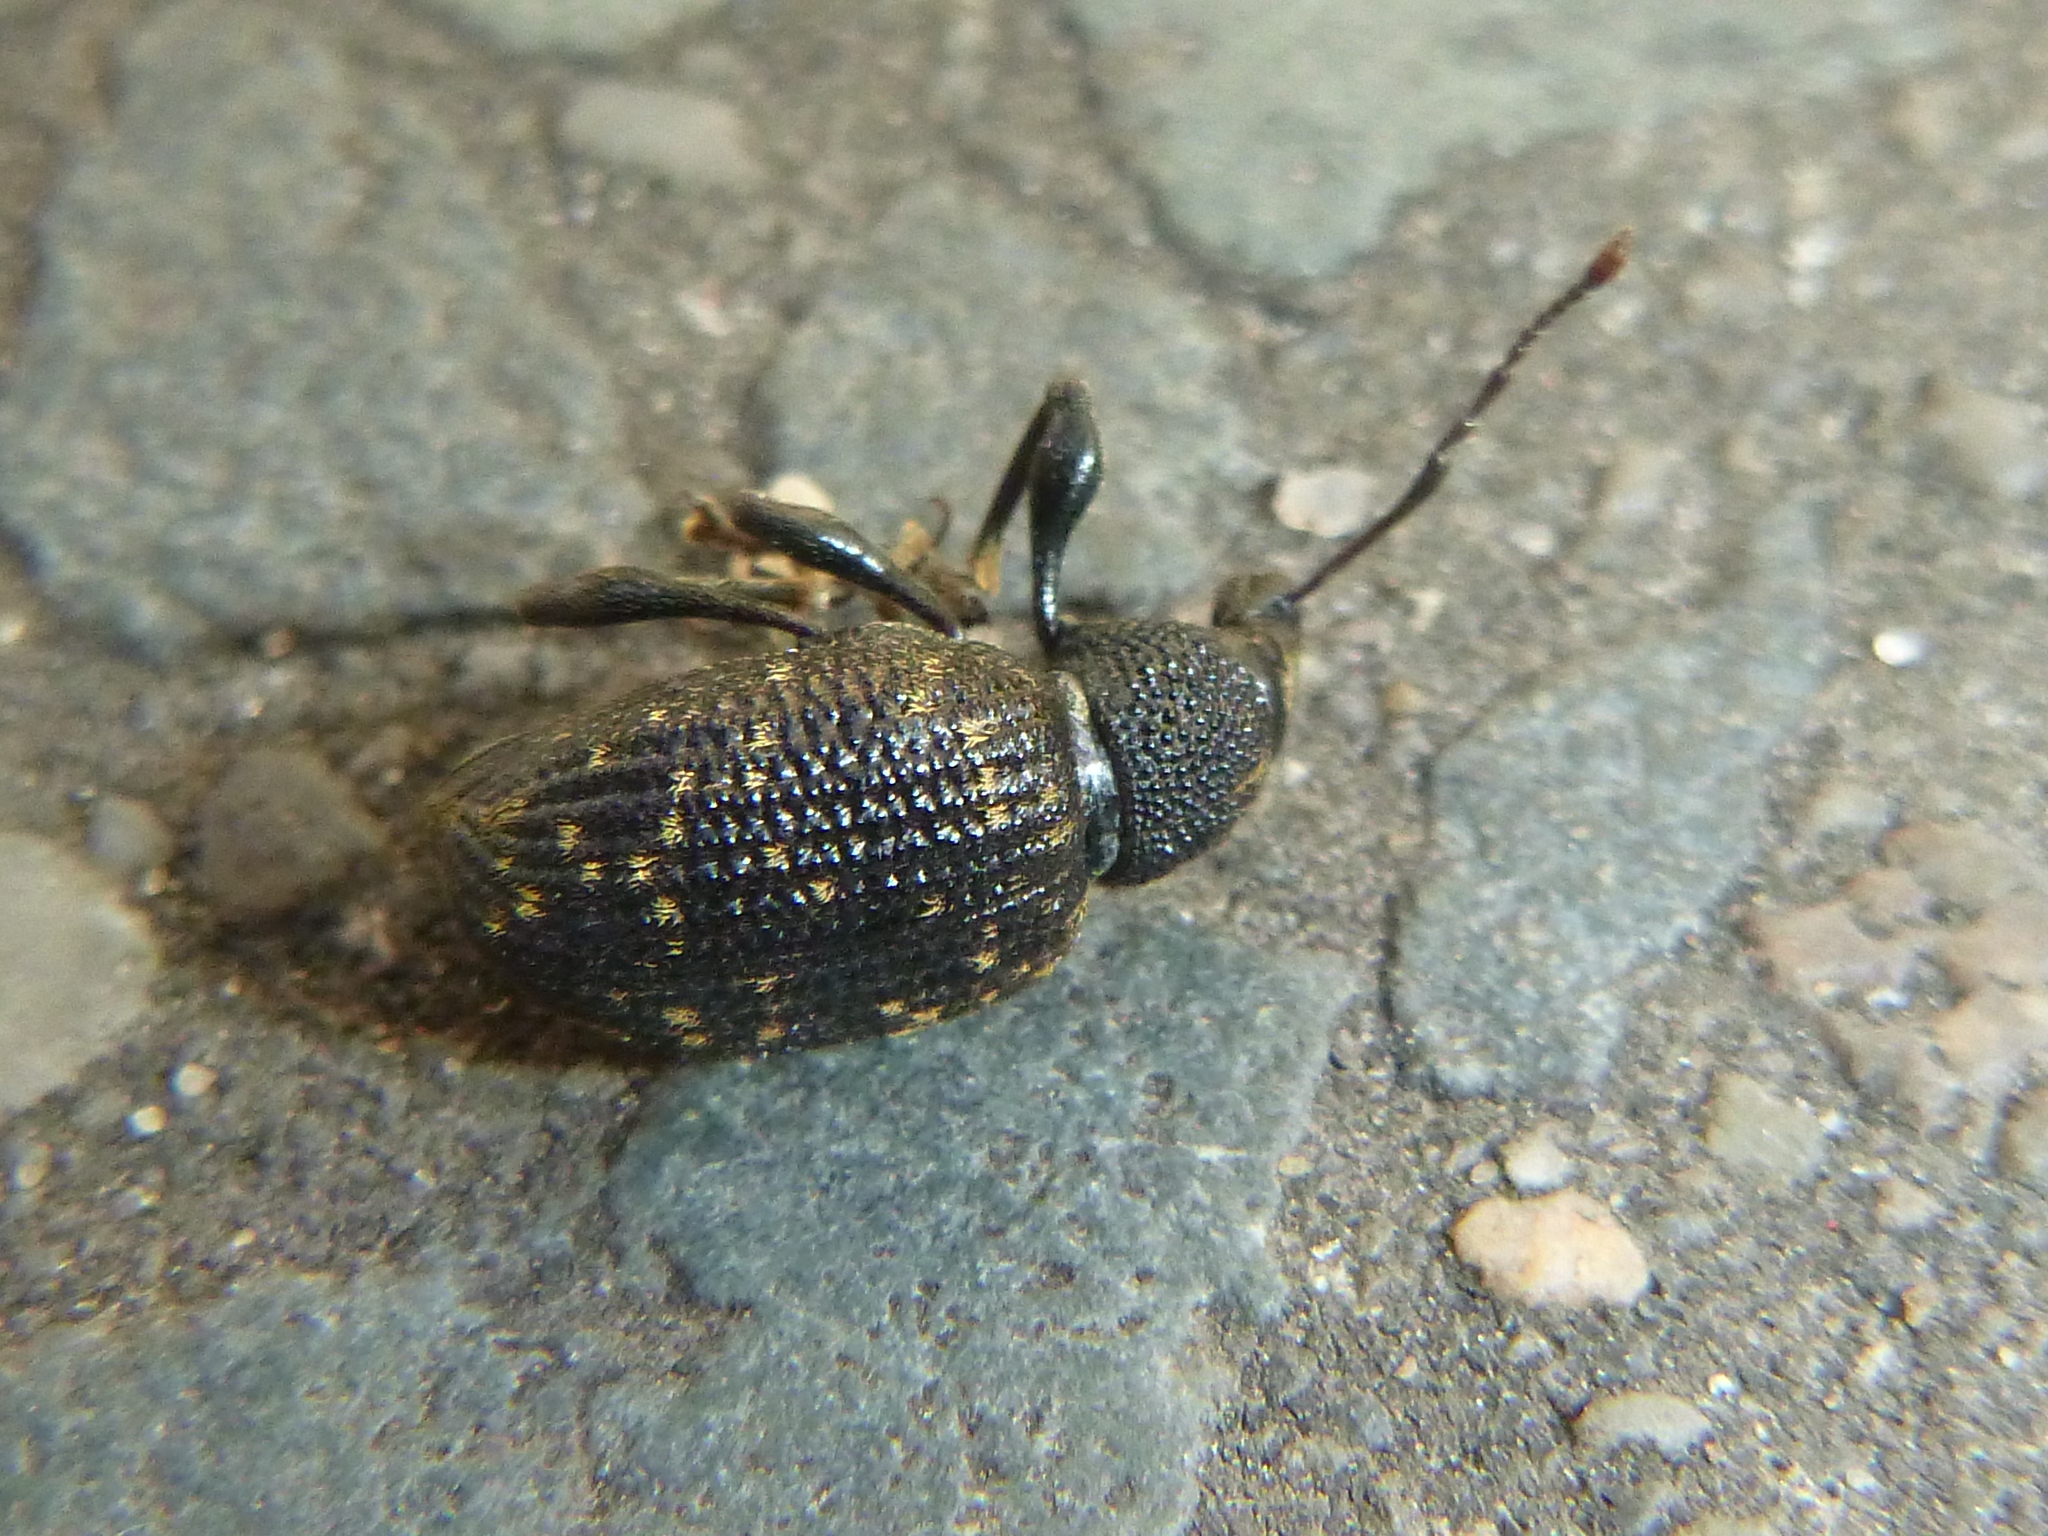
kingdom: Animalia
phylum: Arthropoda
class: Insecta
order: Coleoptera
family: Curculionidae
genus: Otiorhynchus
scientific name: Otiorhynchus sulcatus
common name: Black vine weevil
